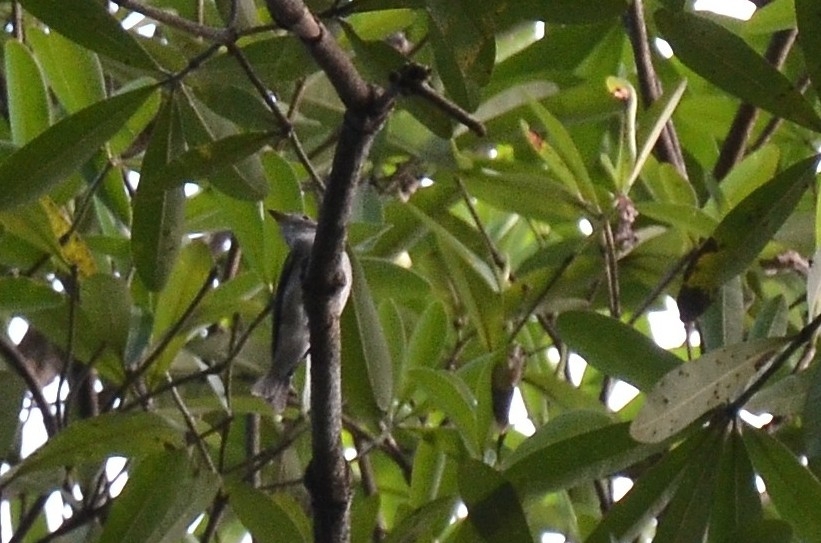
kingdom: Animalia
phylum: Chordata
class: Aves
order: Passeriformes
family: Muscicapidae
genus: Muscicapa
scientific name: Muscicapa latirostris
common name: Asian brown flycatcher
